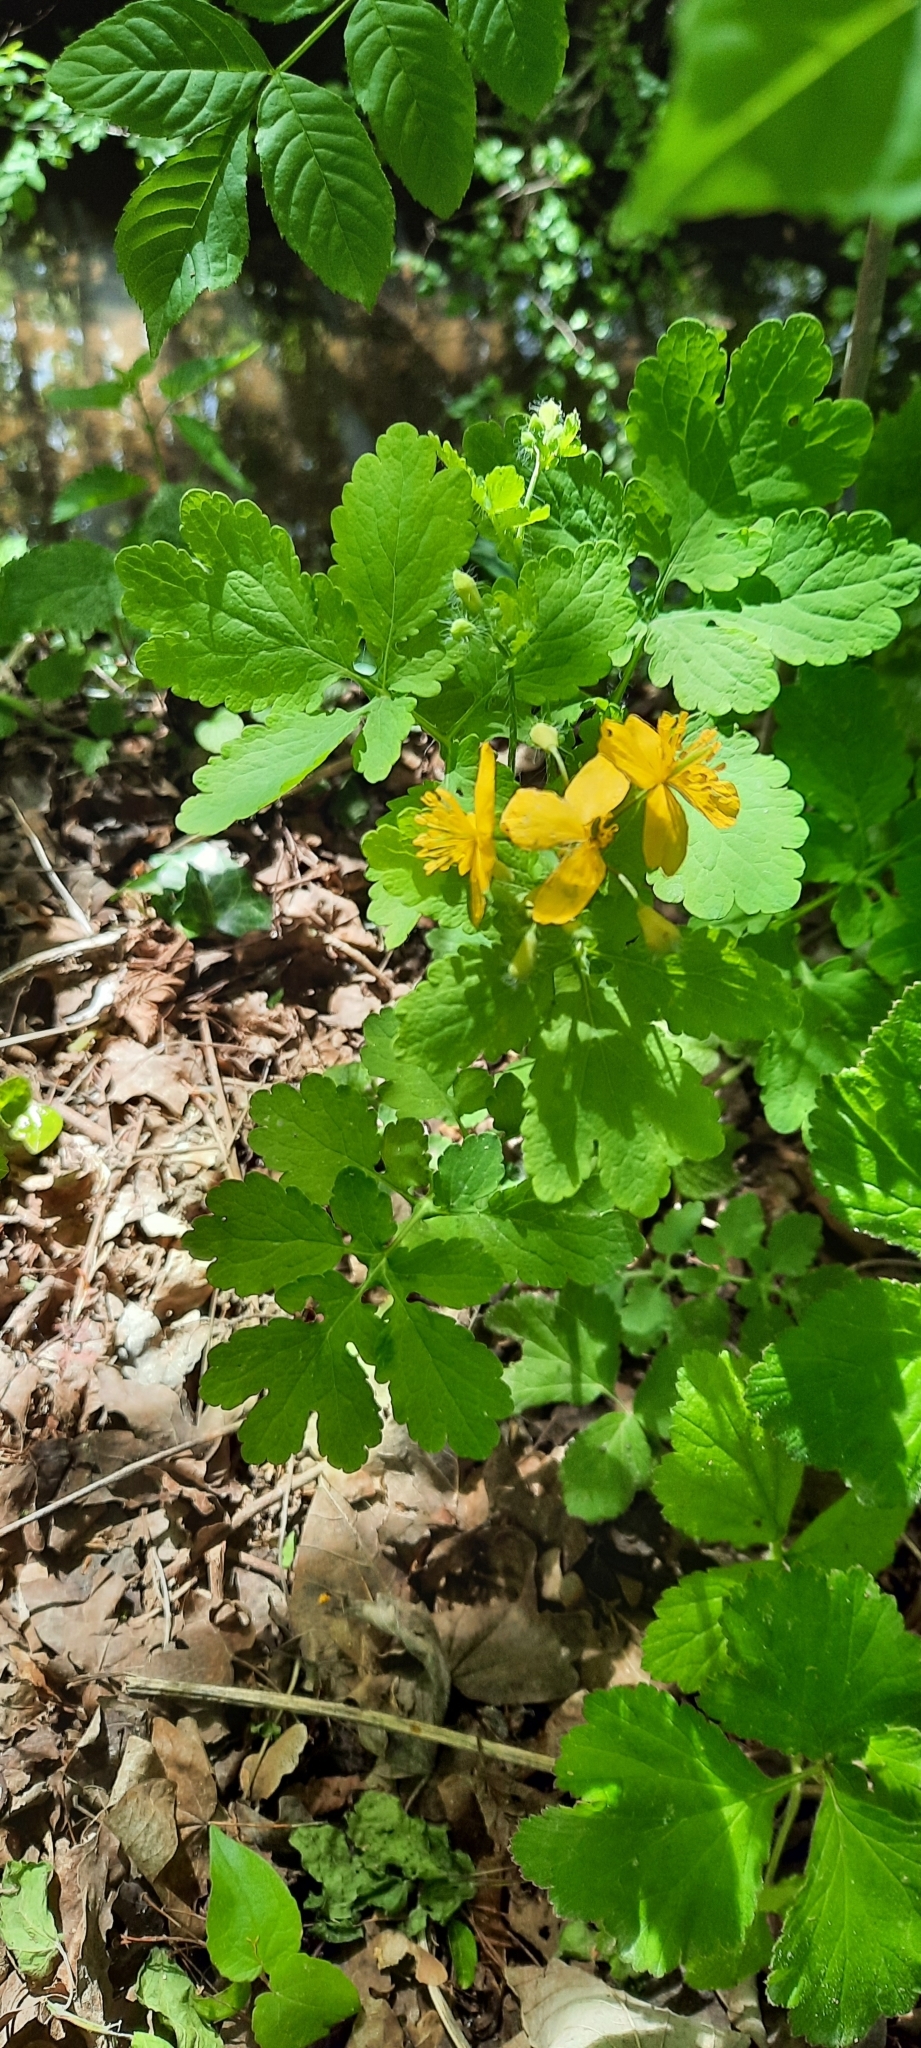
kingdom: Plantae
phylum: Tracheophyta
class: Magnoliopsida
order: Ranunculales
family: Papaveraceae
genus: Chelidonium
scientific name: Chelidonium majus
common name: Greater celandine
